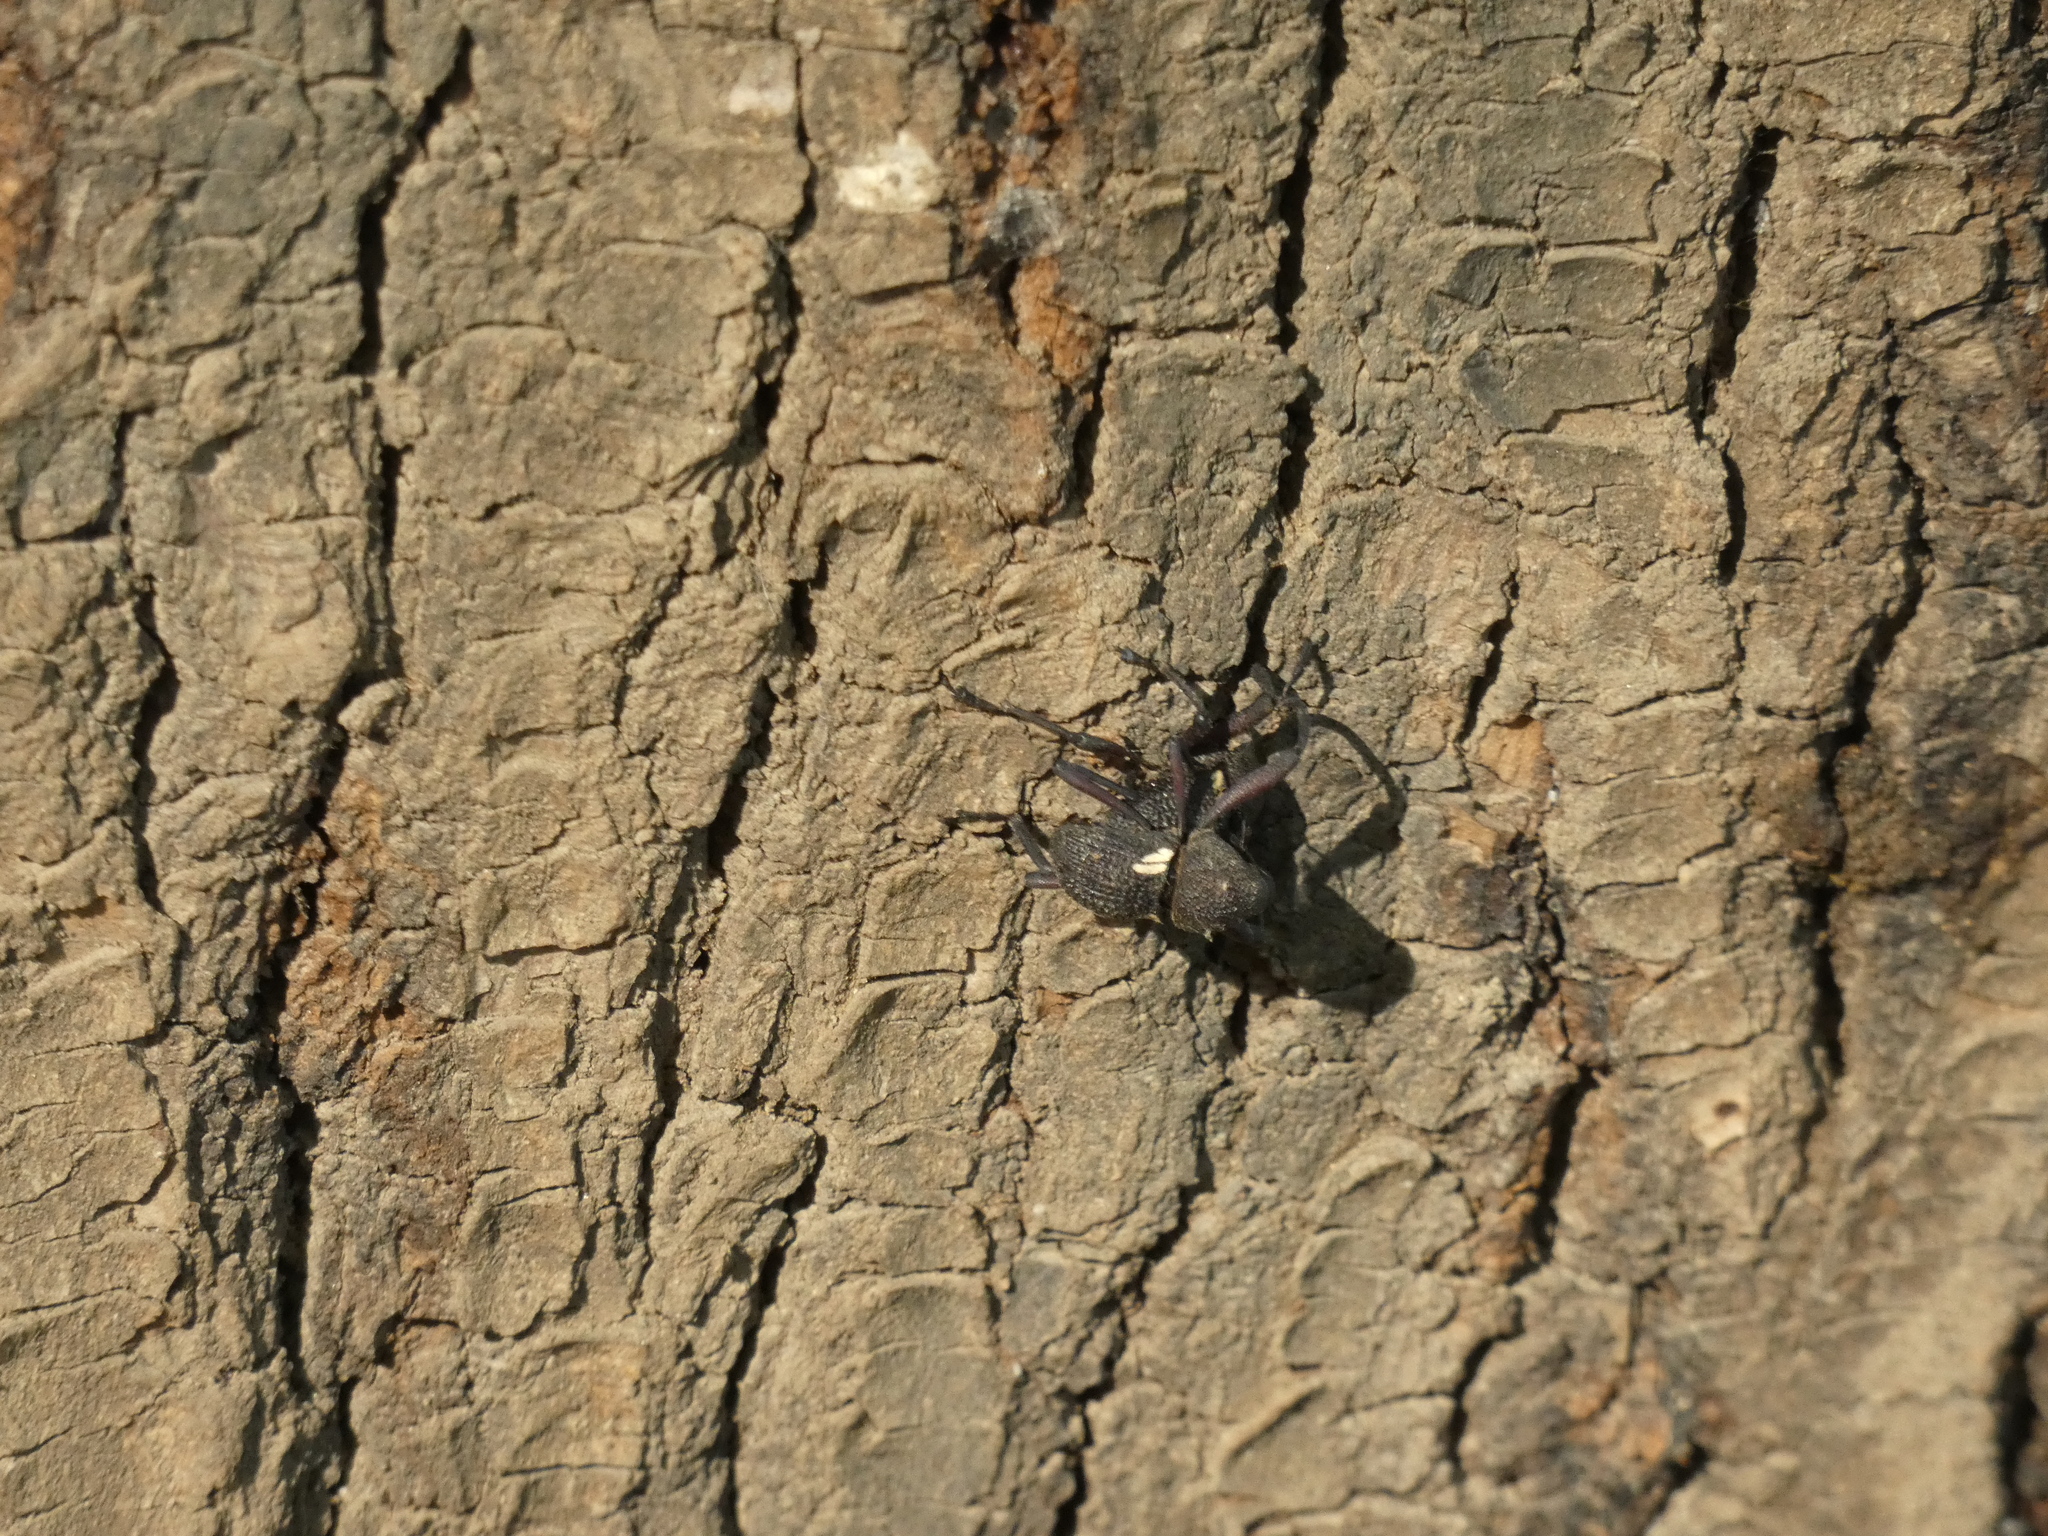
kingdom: Animalia
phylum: Arthropoda
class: Insecta
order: Coleoptera
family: Curculionidae
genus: Rhyephenes
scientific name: Rhyephenes humeralis
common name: Araè±ita chilena del pino
